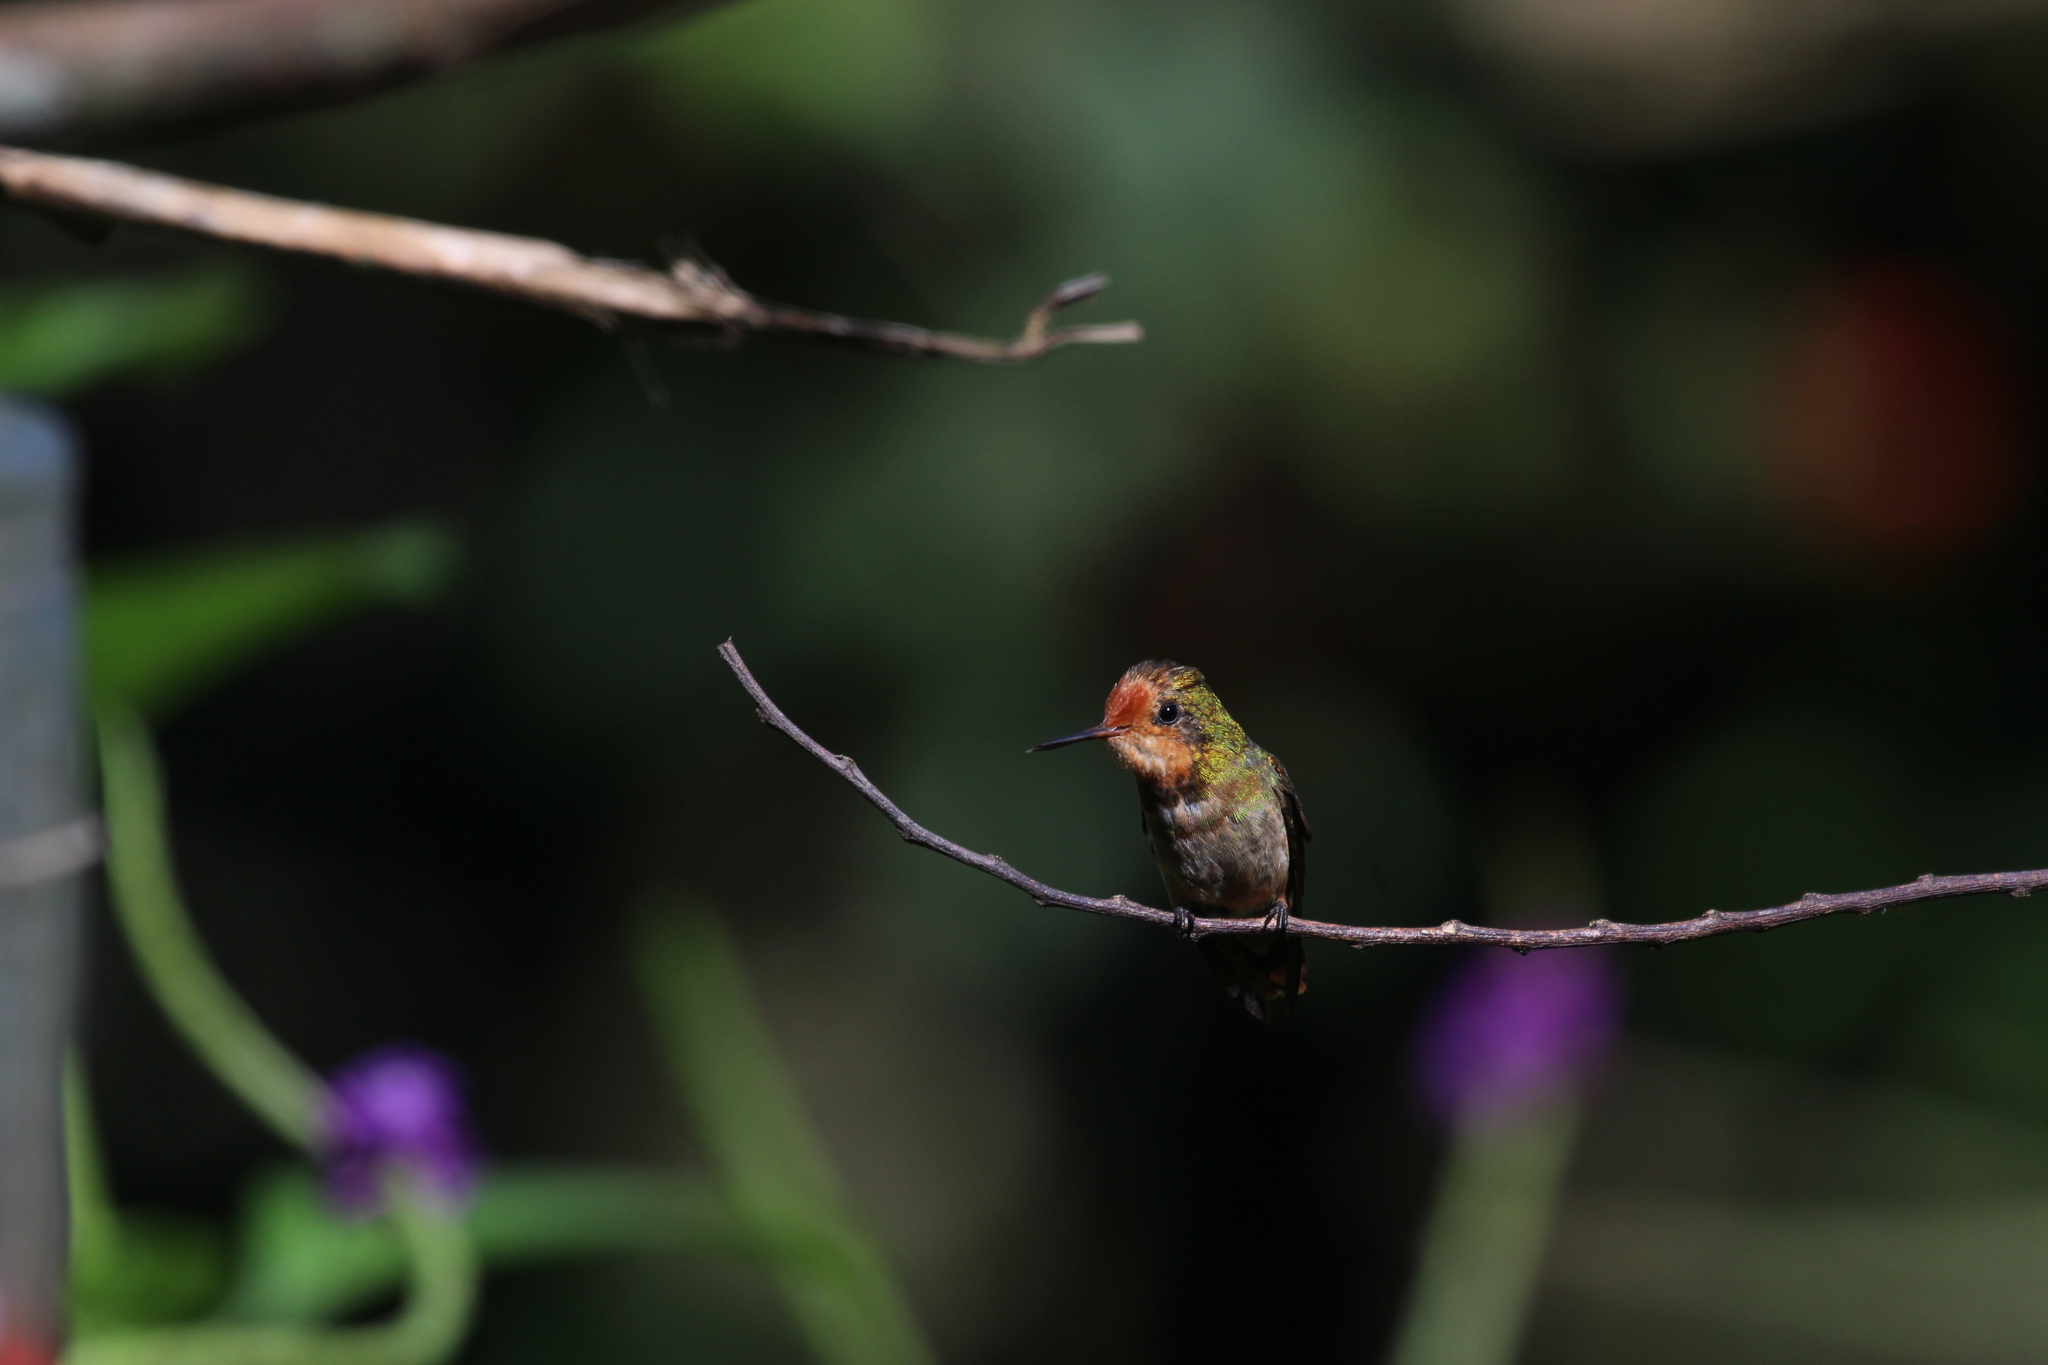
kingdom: Animalia
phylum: Chordata
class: Aves
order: Apodiformes
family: Trochilidae
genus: Lophornis
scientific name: Lophornis delattrei
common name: Rufous-crested coquette
